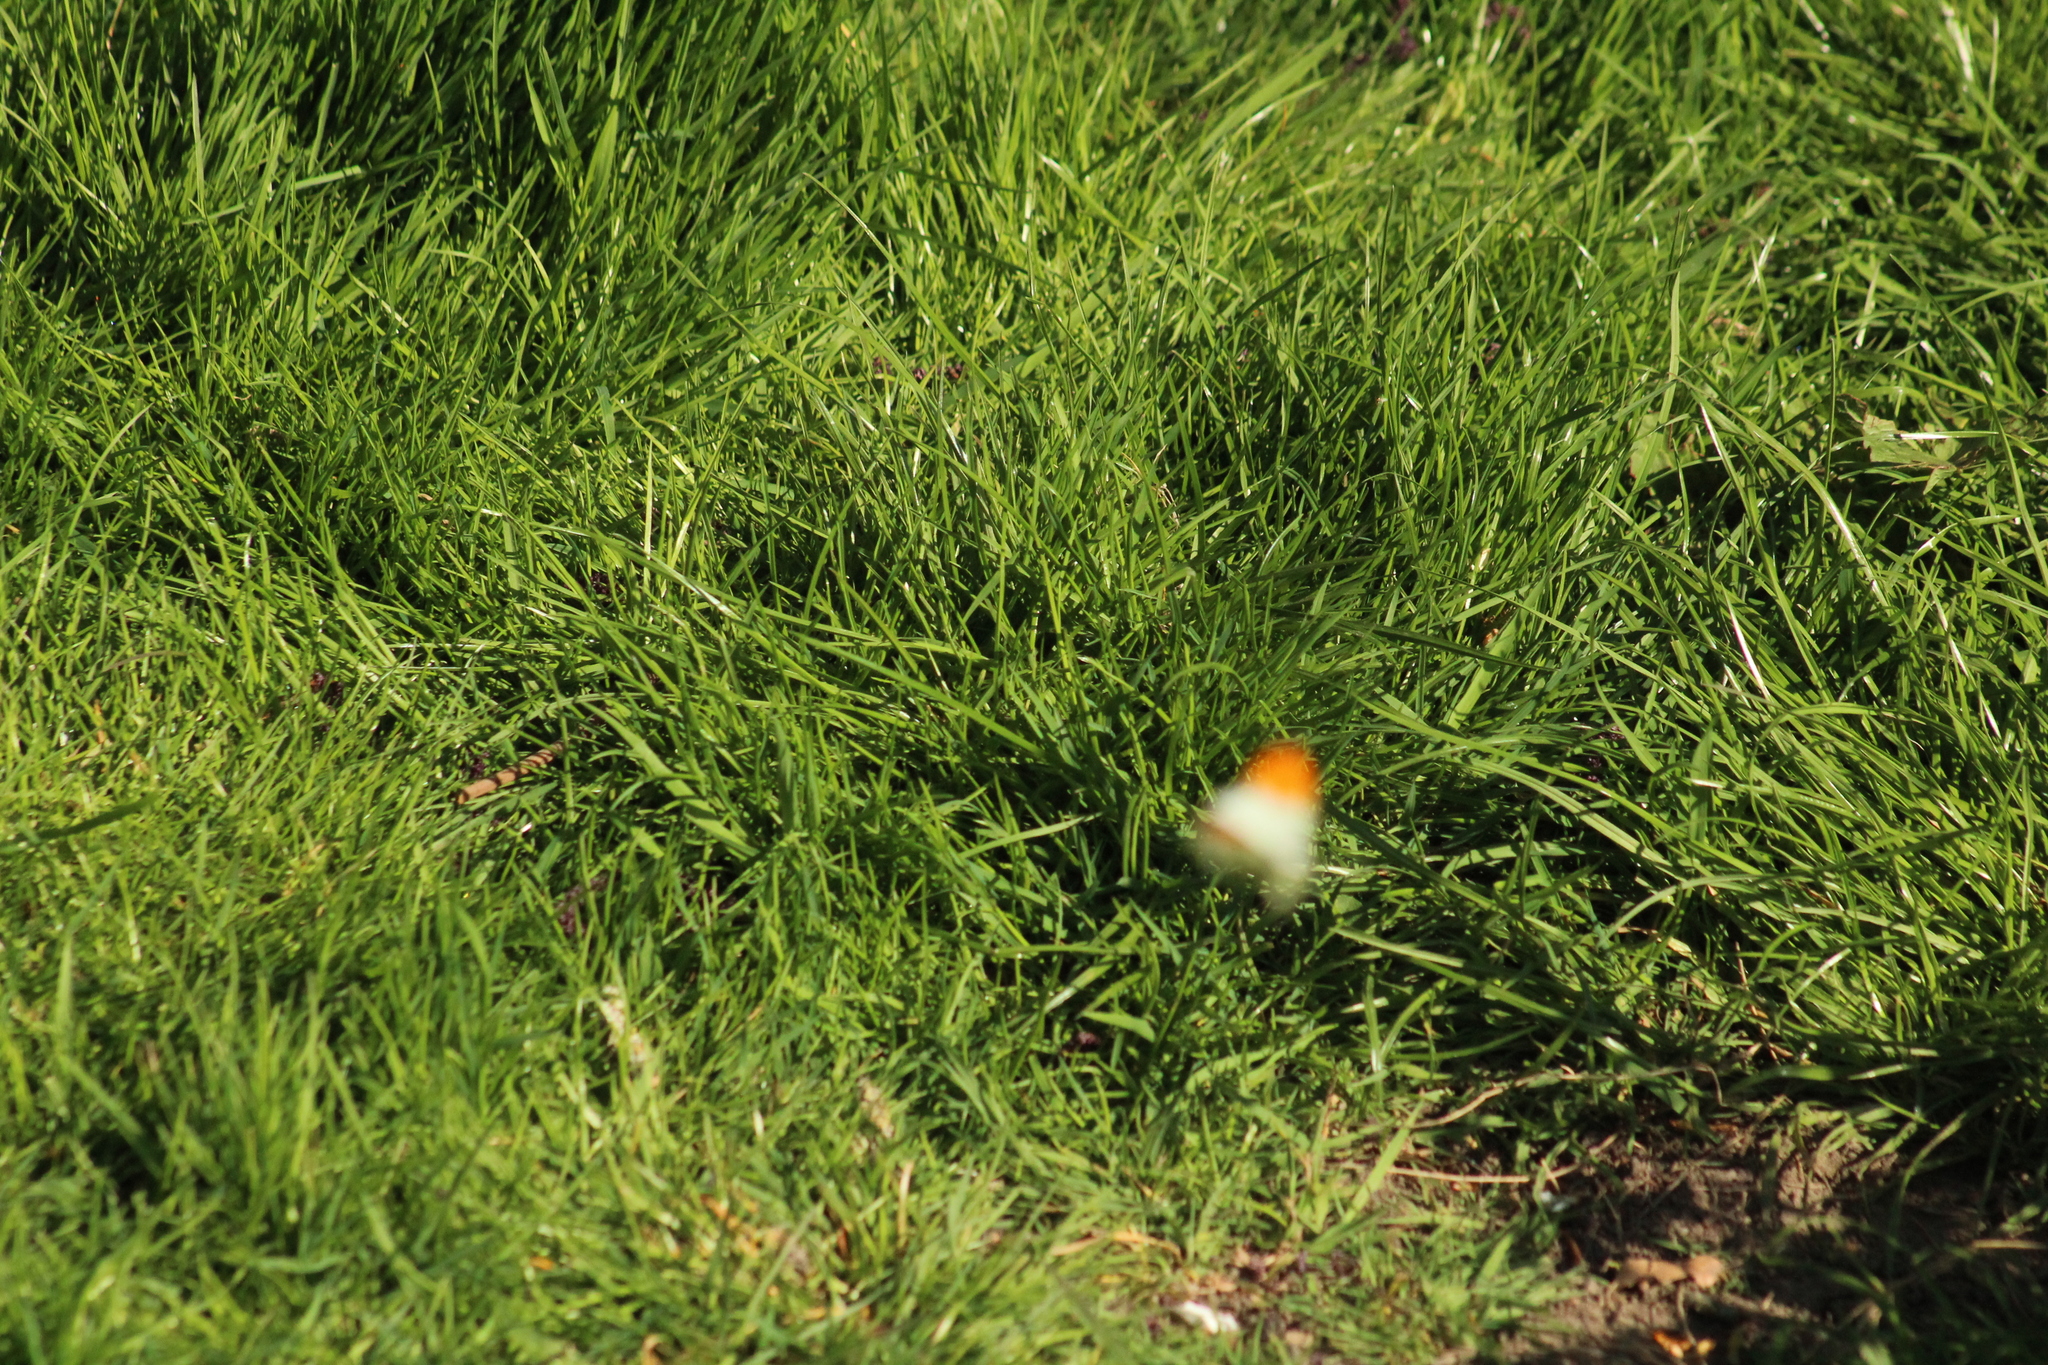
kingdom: Animalia
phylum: Arthropoda
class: Insecta
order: Lepidoptera
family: Pieridae
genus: Anthocharis
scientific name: Anthocharis cardamines
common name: Orange-tip
